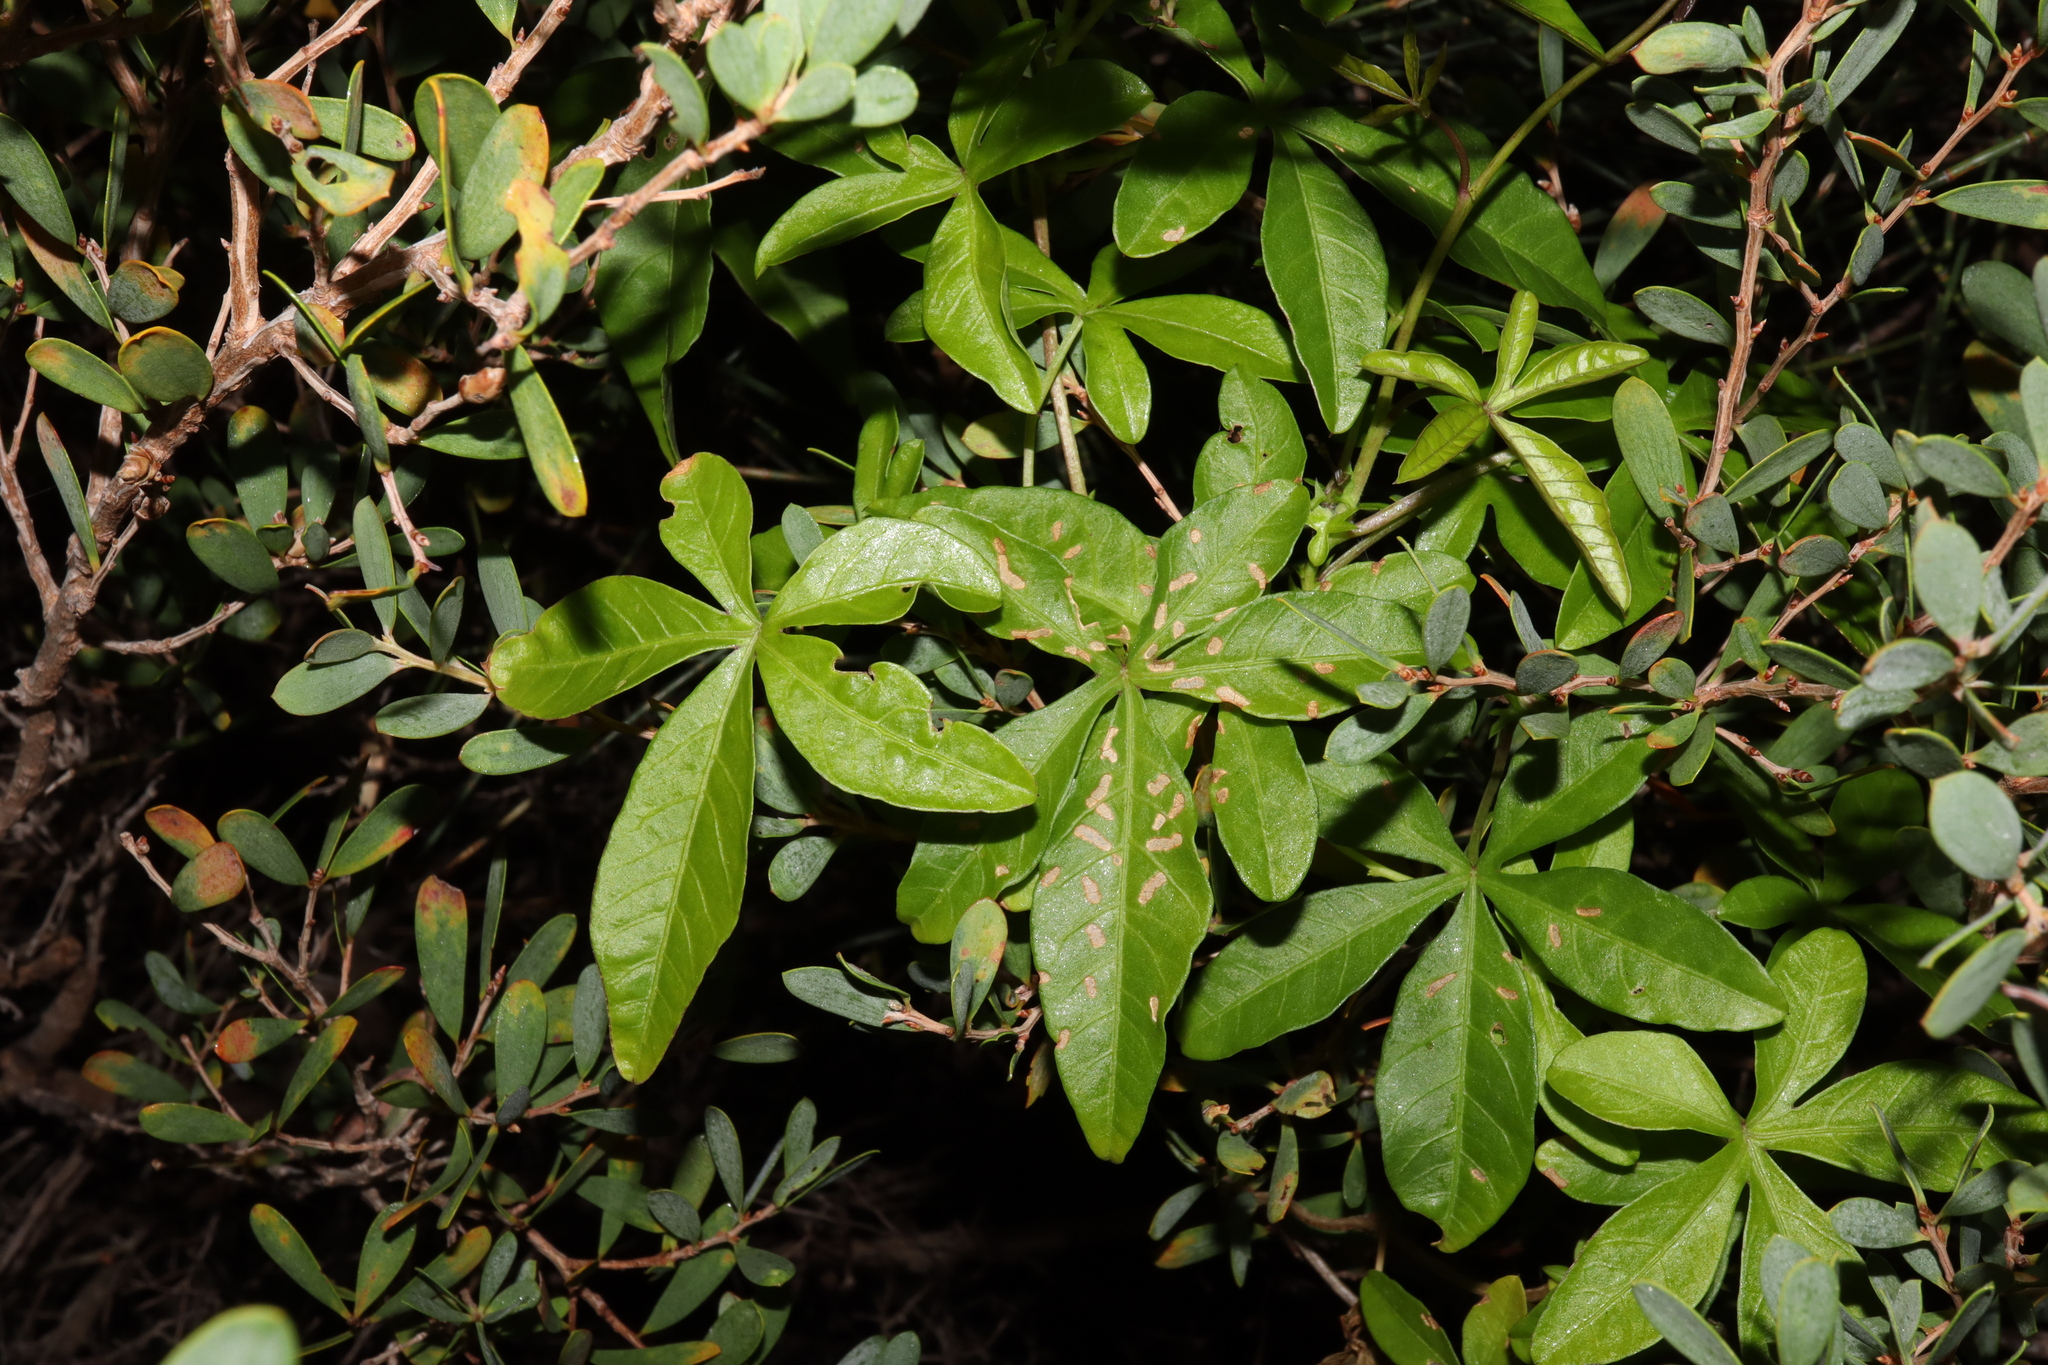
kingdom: Plantae
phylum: Tracheophyta
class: Magnoliopsida
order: Solanales
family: Convolvulaceae
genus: Ipomoea
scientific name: Ipomoea cairica
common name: Mile a minute vine
